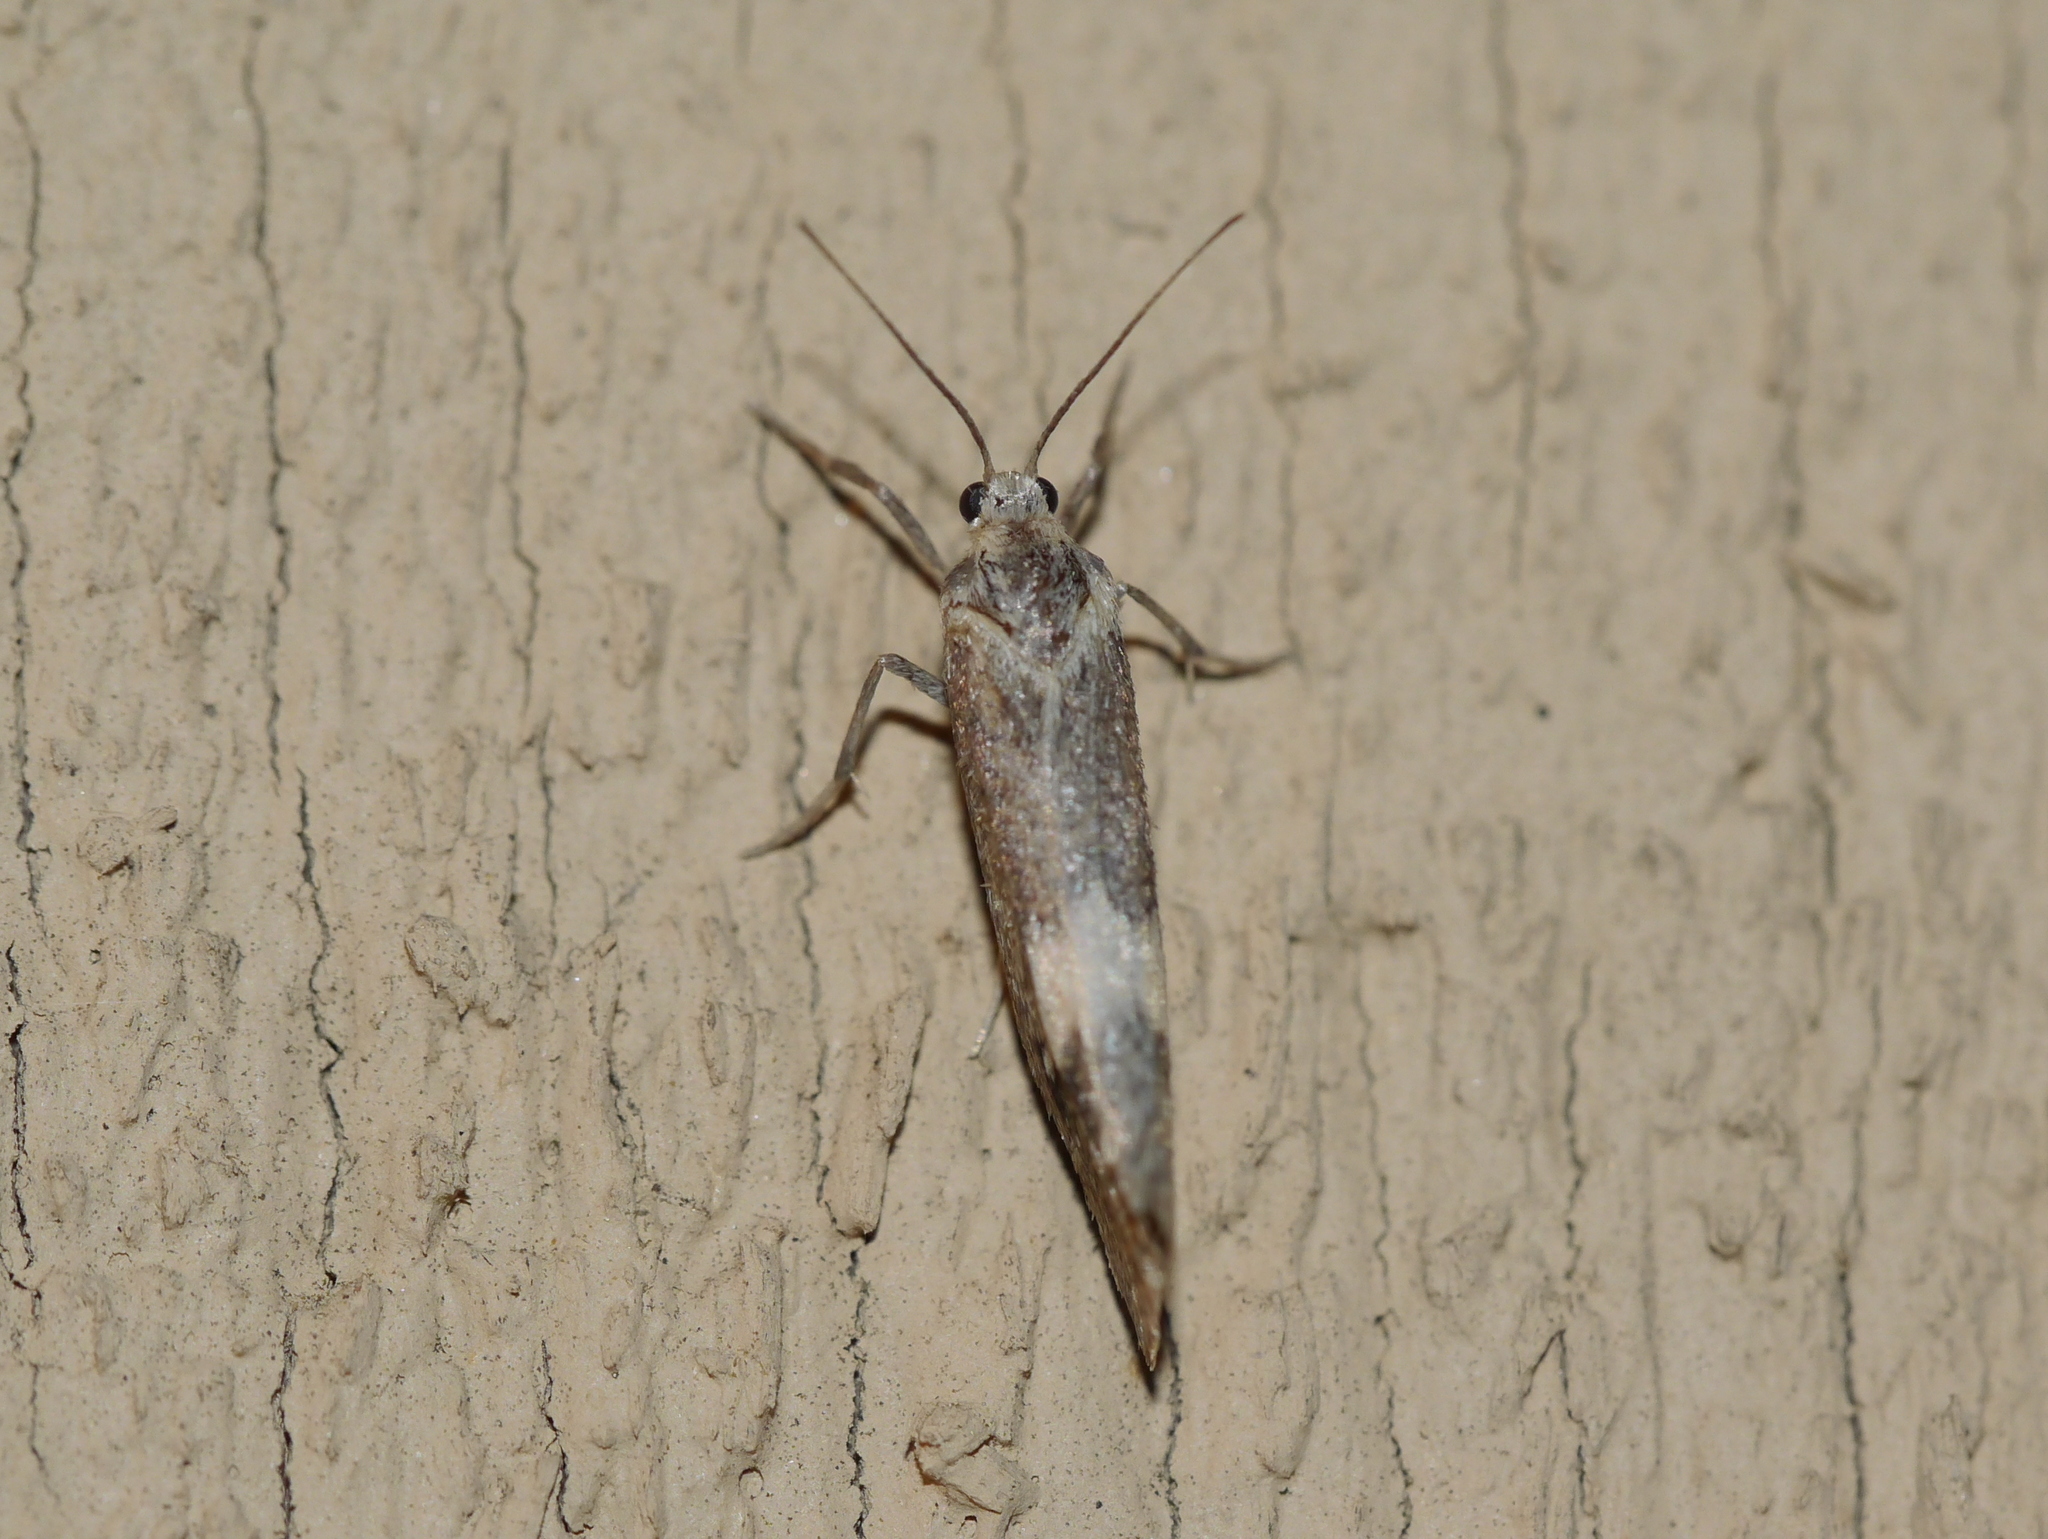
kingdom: Animalia
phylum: Arthropoda
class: Insecta
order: Lepidoptera
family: Erebidae
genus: Cisthene
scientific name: Cisthene deserta
